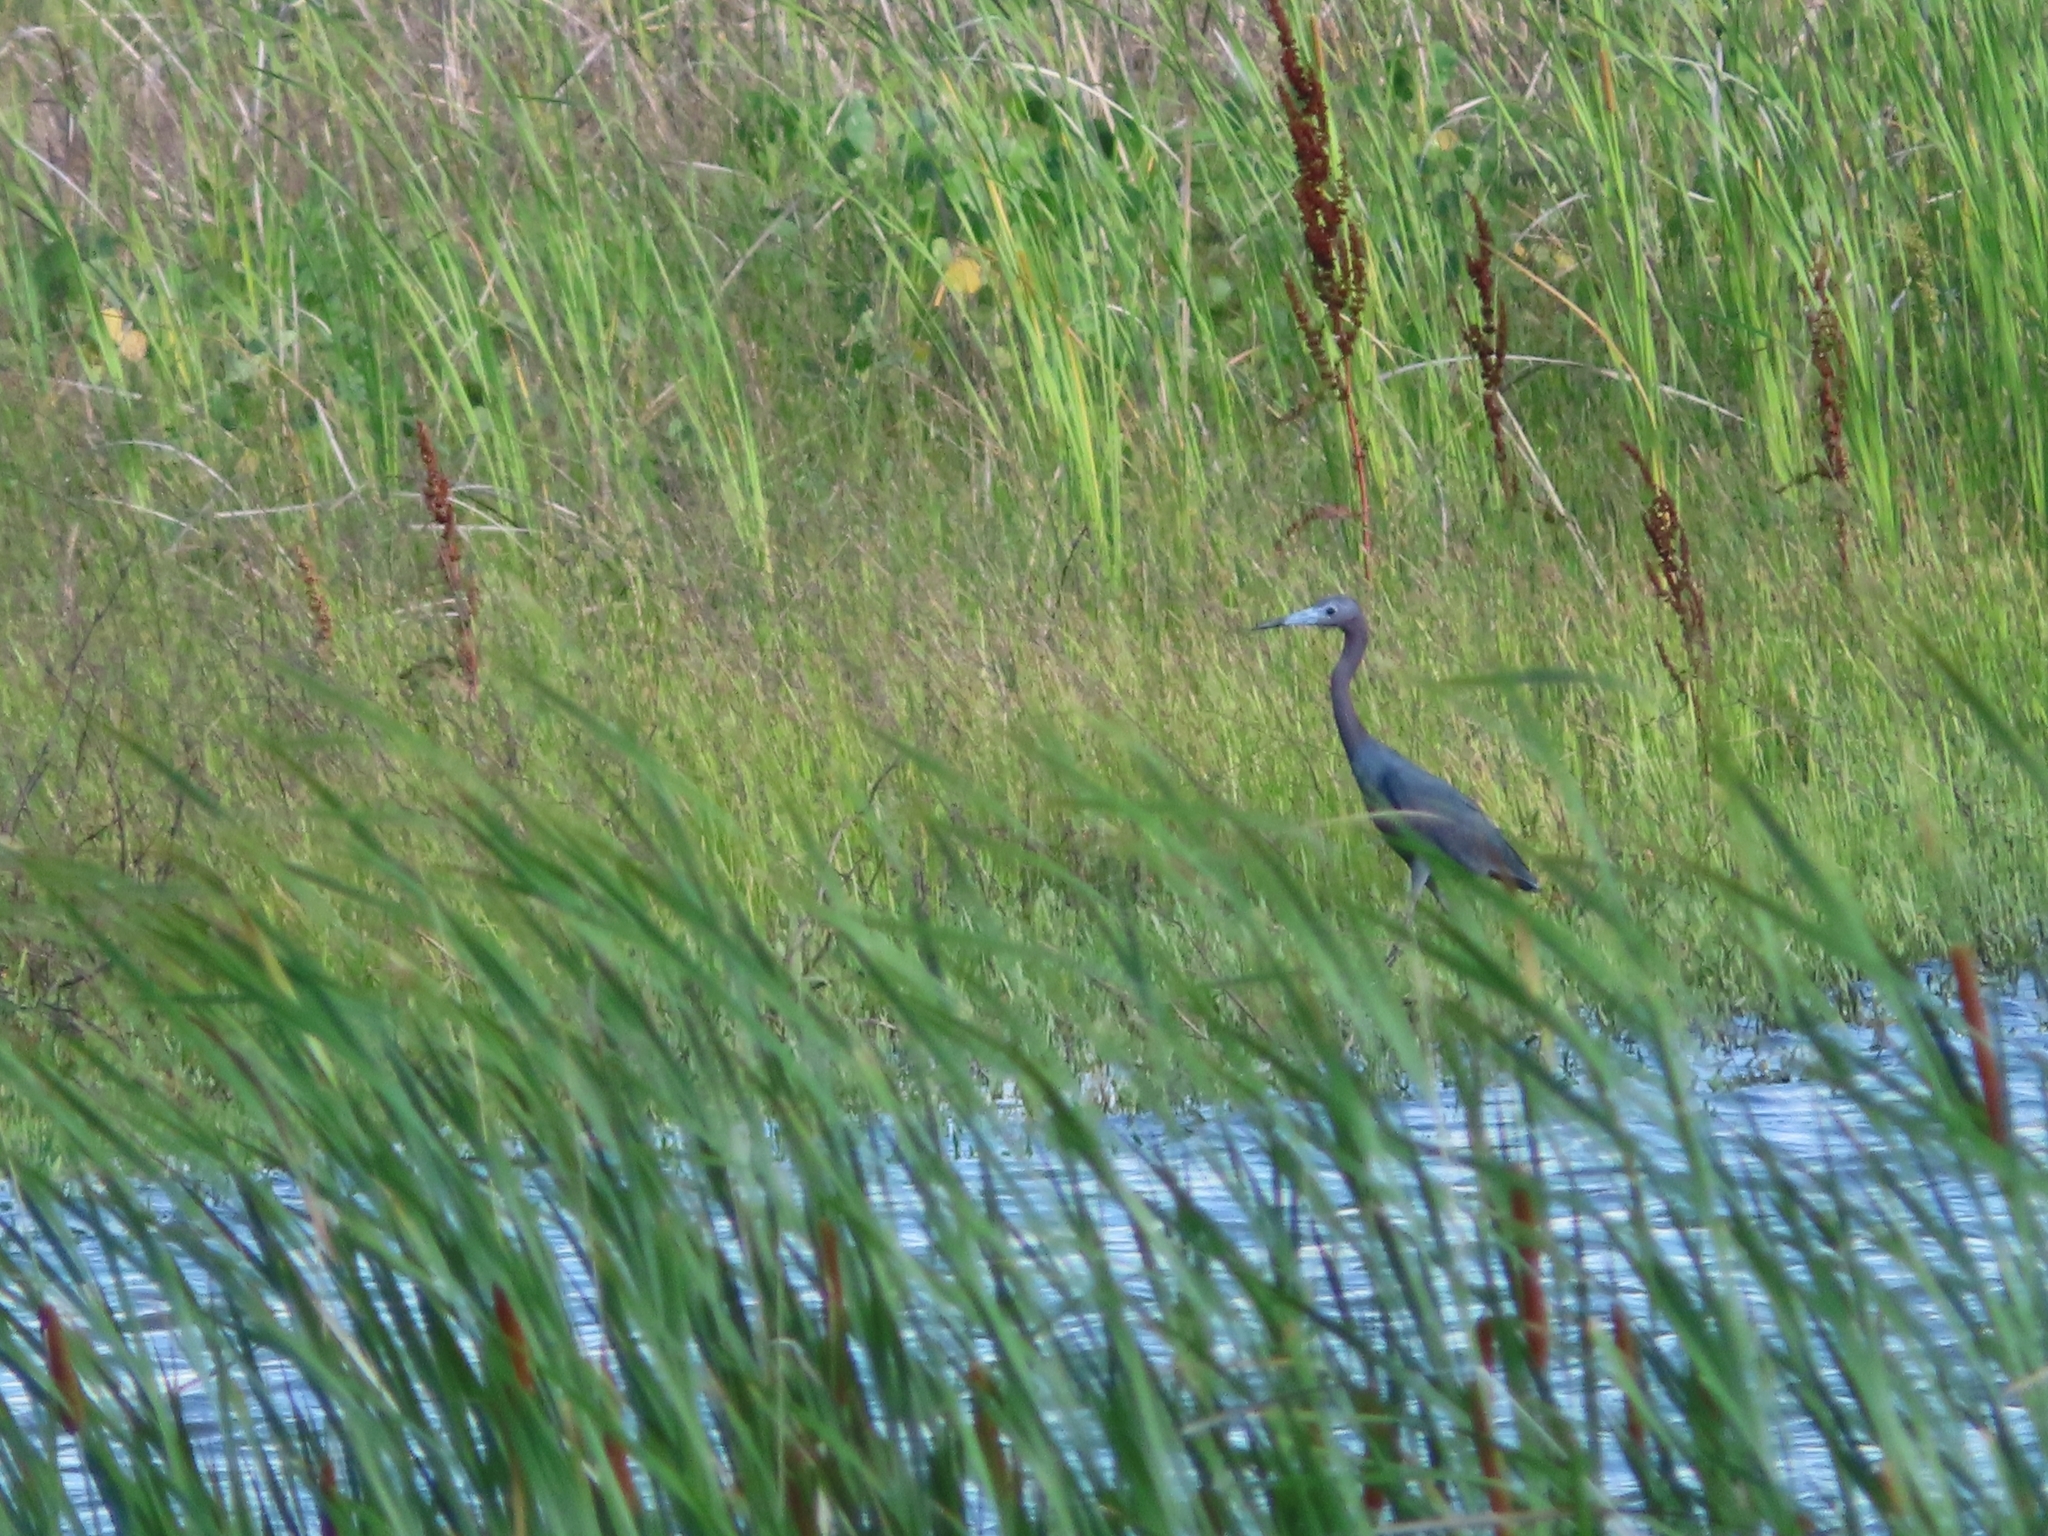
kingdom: Animalia
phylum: Chordata
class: Aves
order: Pelecaniformes
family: Ardeidae
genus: Egretta
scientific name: Egretta caerulea
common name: Little blue heron
